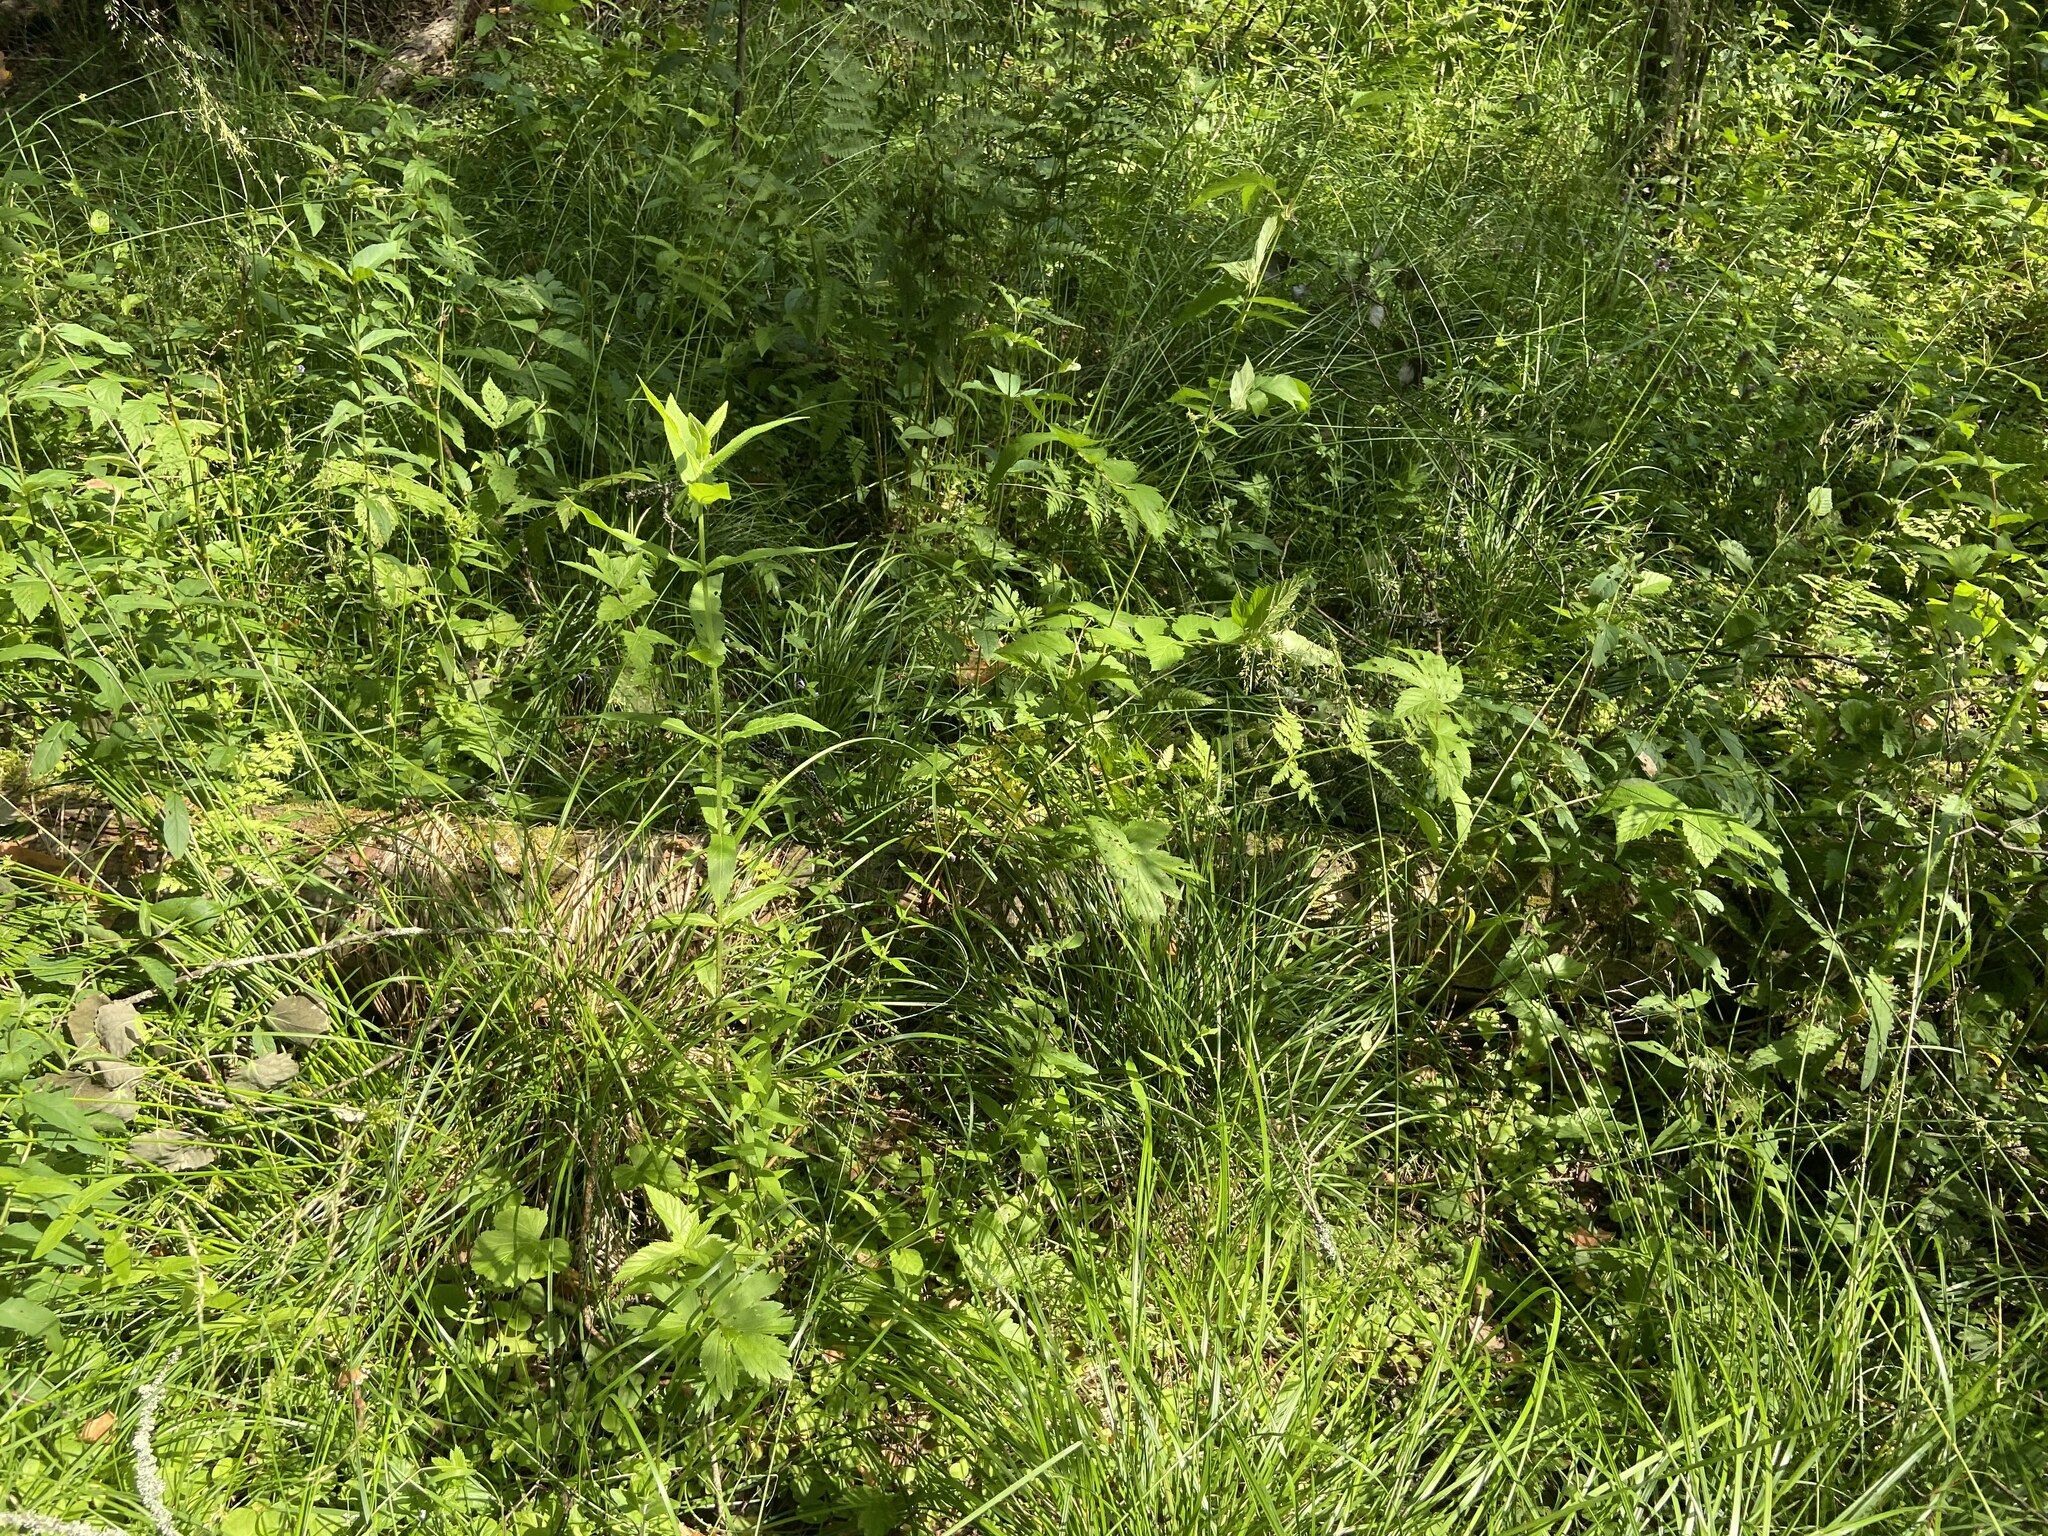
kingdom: Plantae
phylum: Tracheophyta
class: Magnoliopsida
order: Lamiales
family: Lamiaceae
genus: Stachys
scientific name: Stachys palustris
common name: Marsh woundwort
